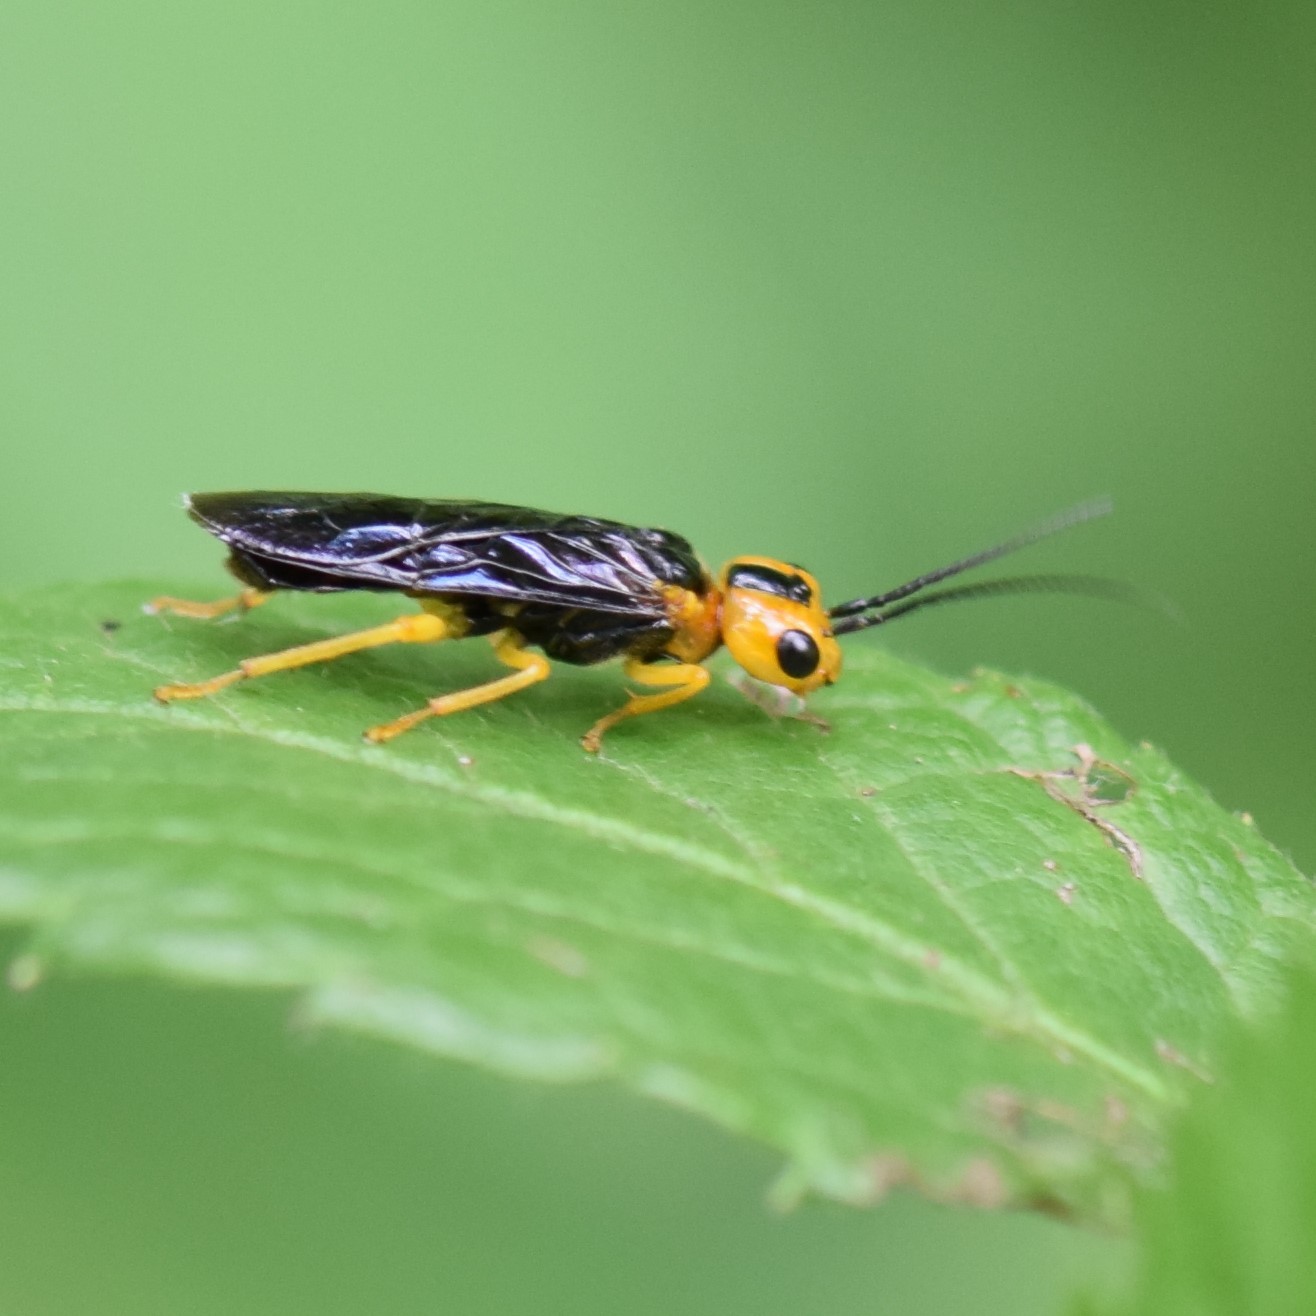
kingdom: Animalia
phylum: Arthropoda
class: Insecta
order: Hymenoptera
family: Pamphiliidae
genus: Onycholyda
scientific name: Onycholyda amplecta
